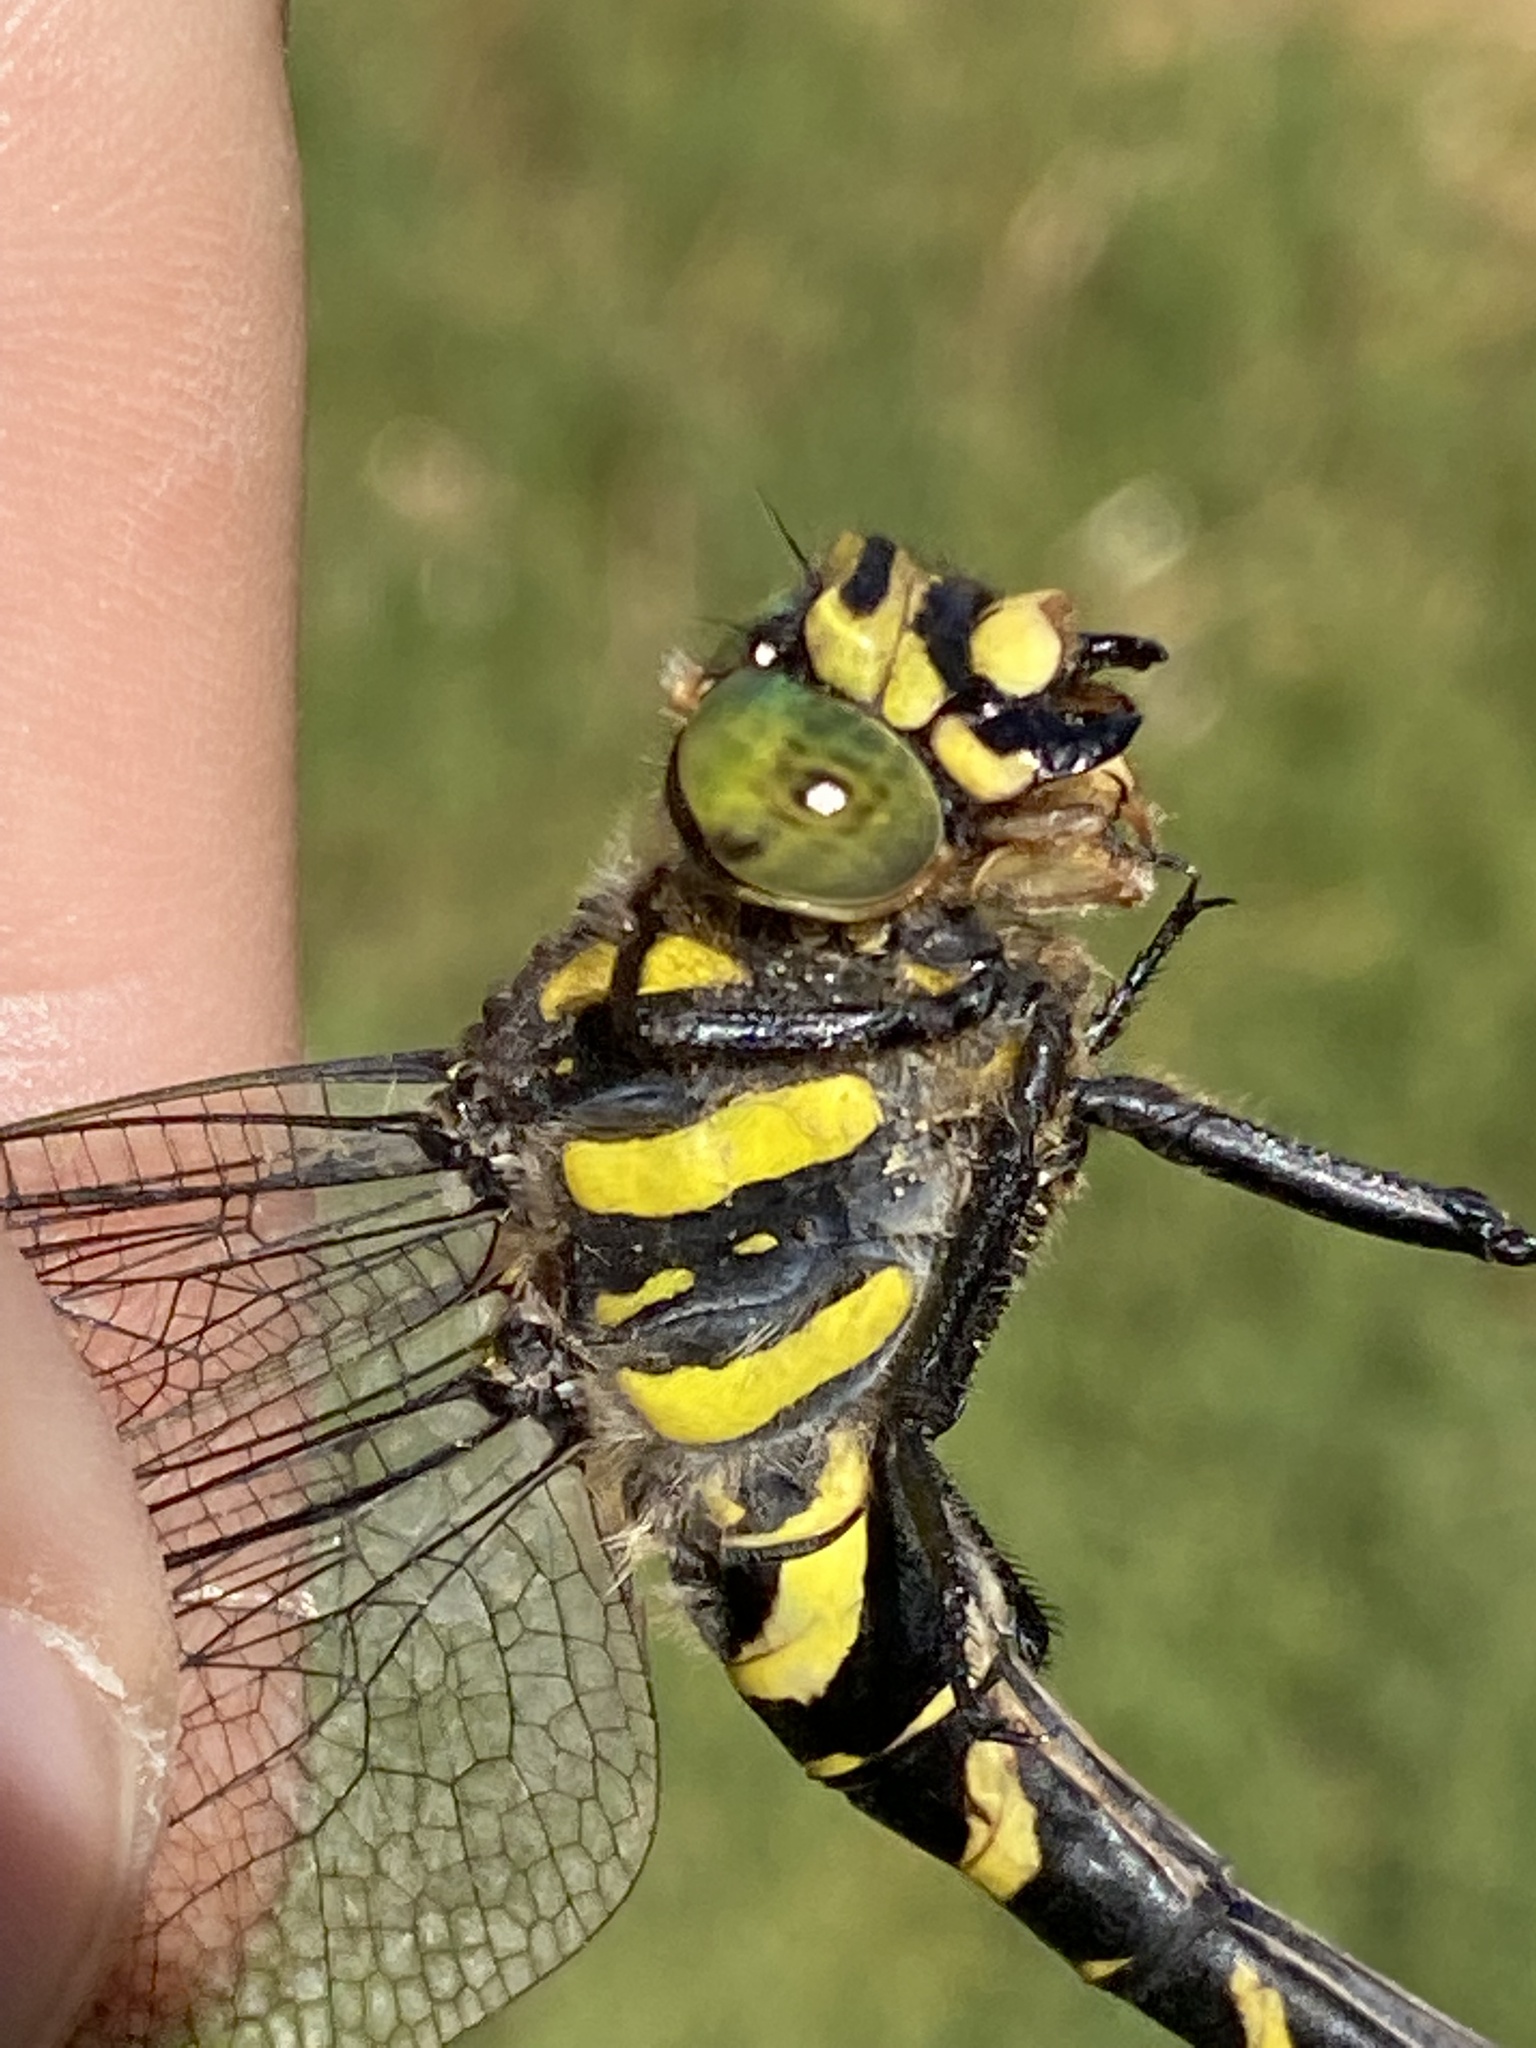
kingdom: Animalia
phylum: Arthropoda
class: Insecta
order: Odonata
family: Cordulegastridae
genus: Cordulegaster
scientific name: Cordulegaster boltonii
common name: Golden-ringed dragonfly
